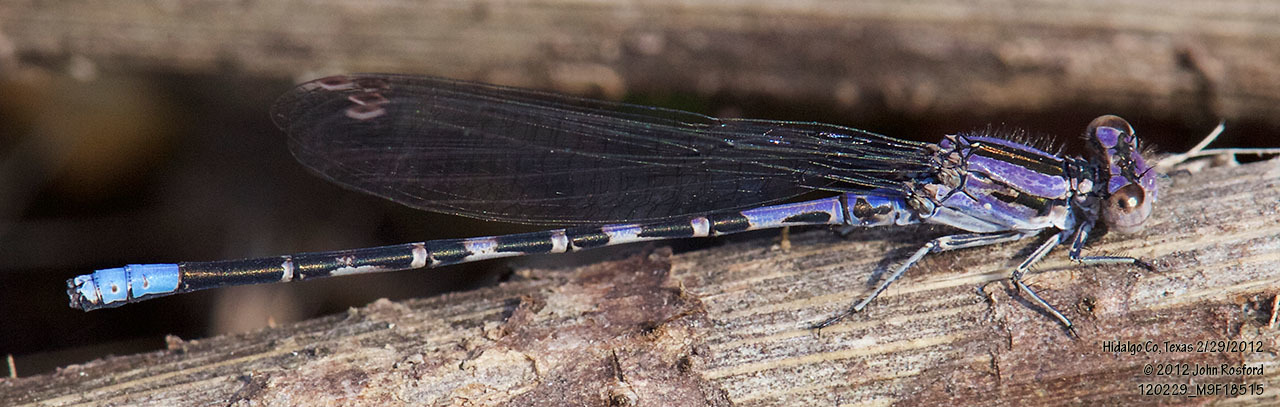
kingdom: Animalia
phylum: Arthropoda
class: Insecta
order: Odonata
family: Coenagrionidae
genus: Argia
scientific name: Argia immunda
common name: Kiowa dancer
